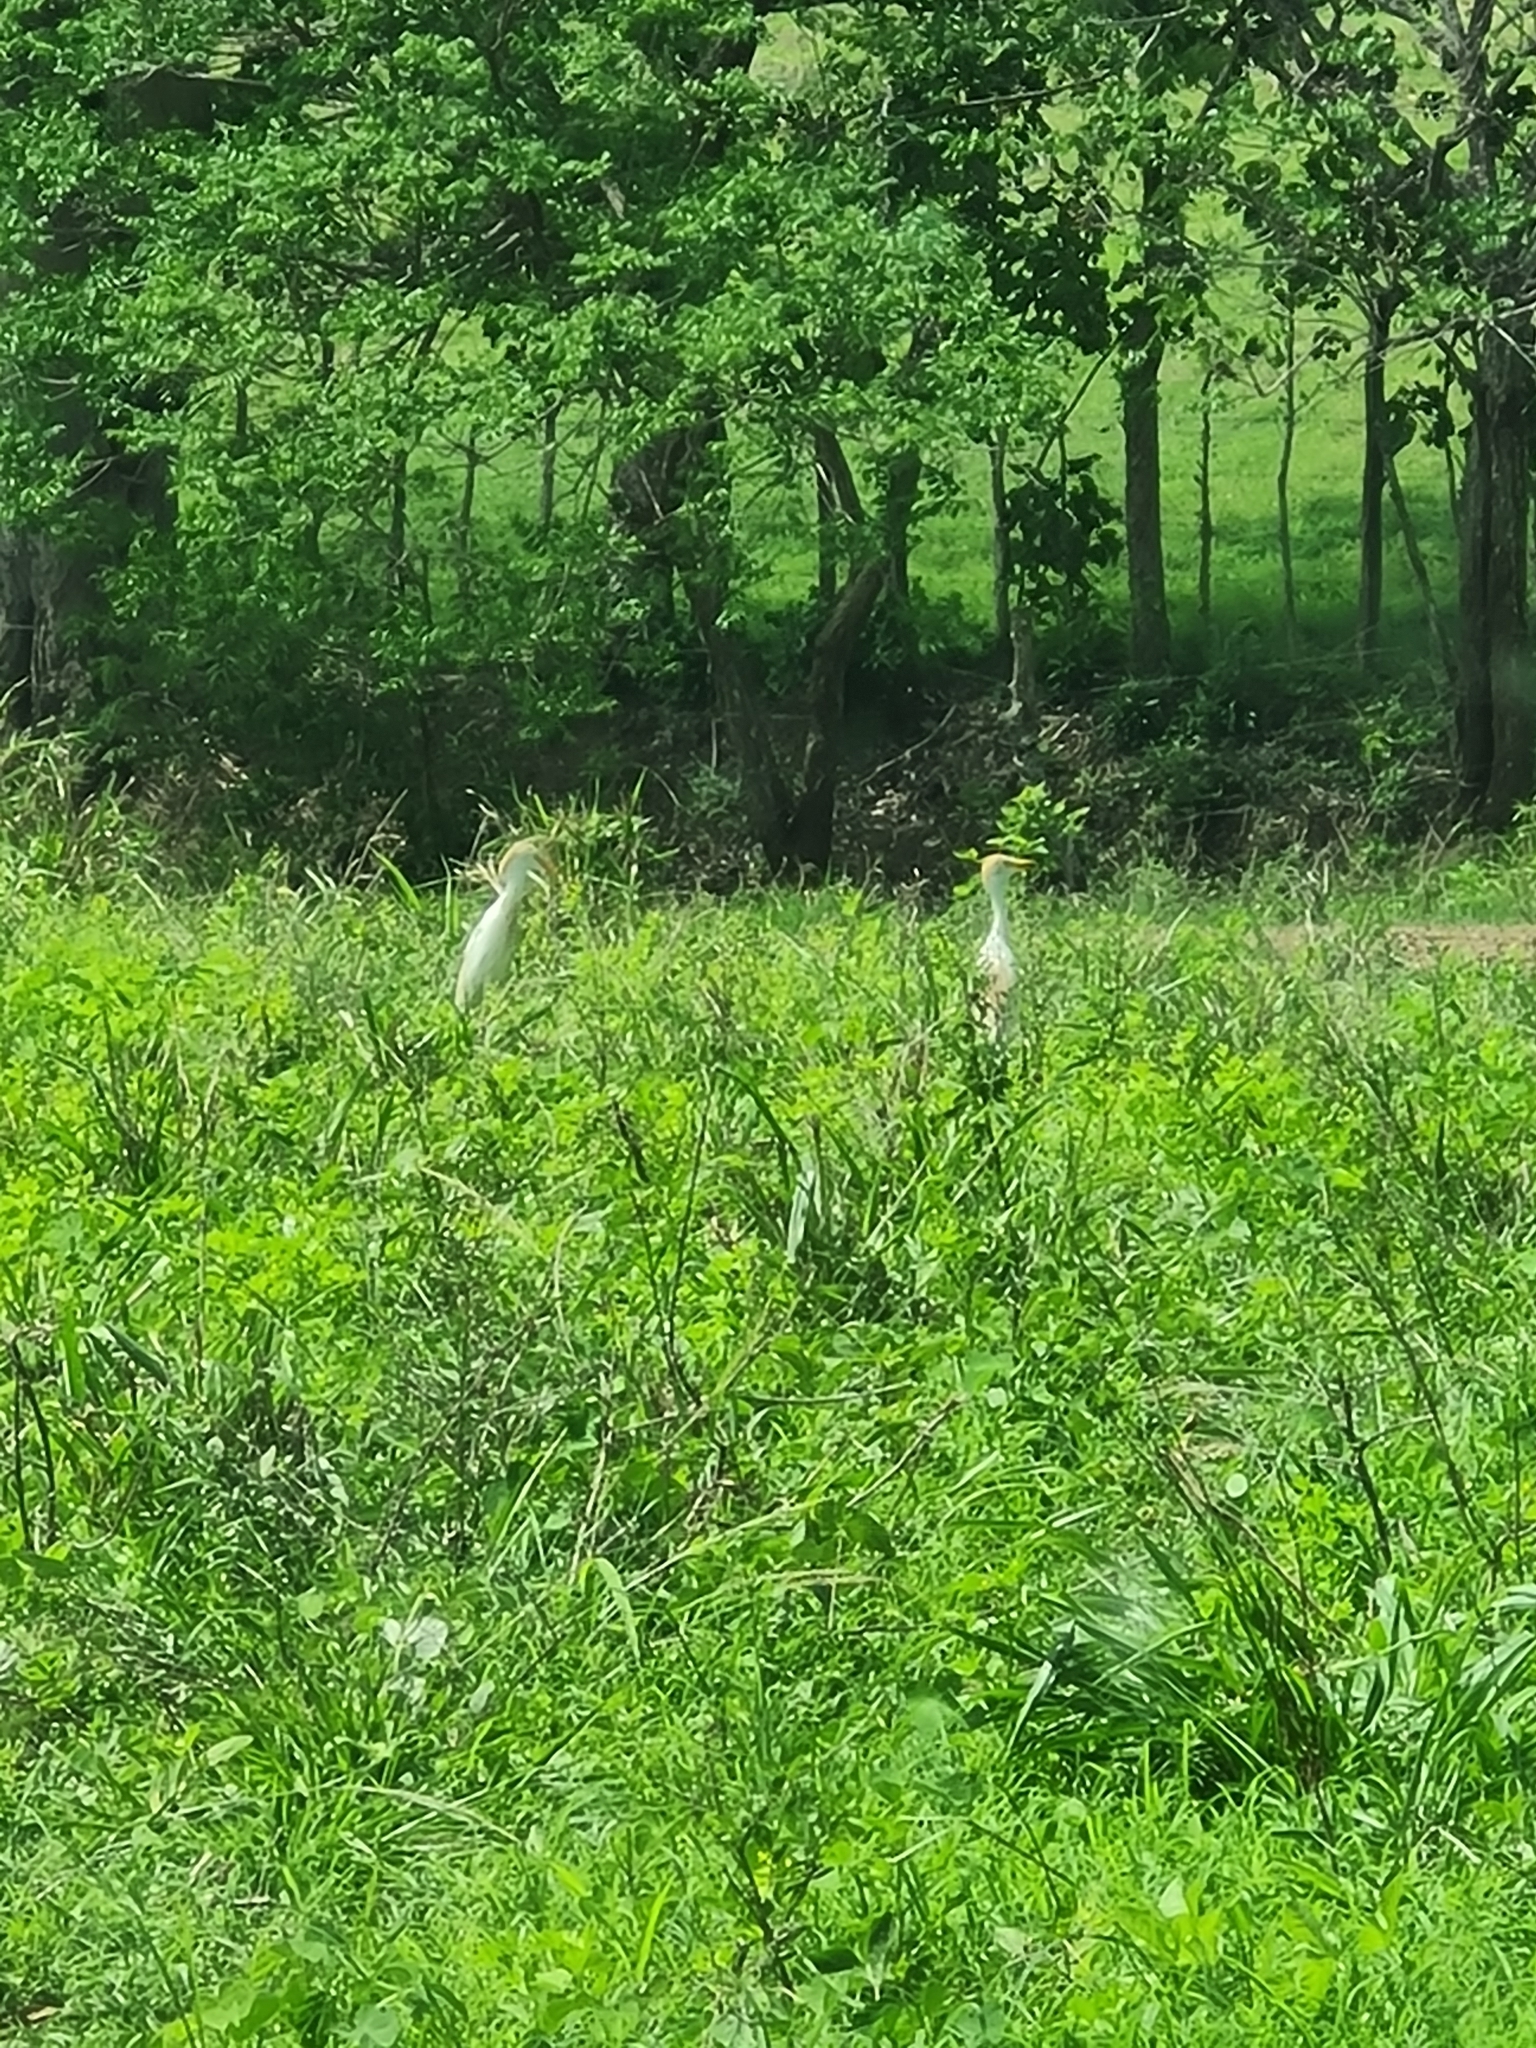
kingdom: Animalia
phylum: Chordata
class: Aves
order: Pelecaniformes
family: Ardeidae
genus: Bubulcus
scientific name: Bubulcus ibis
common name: Cattle egret
